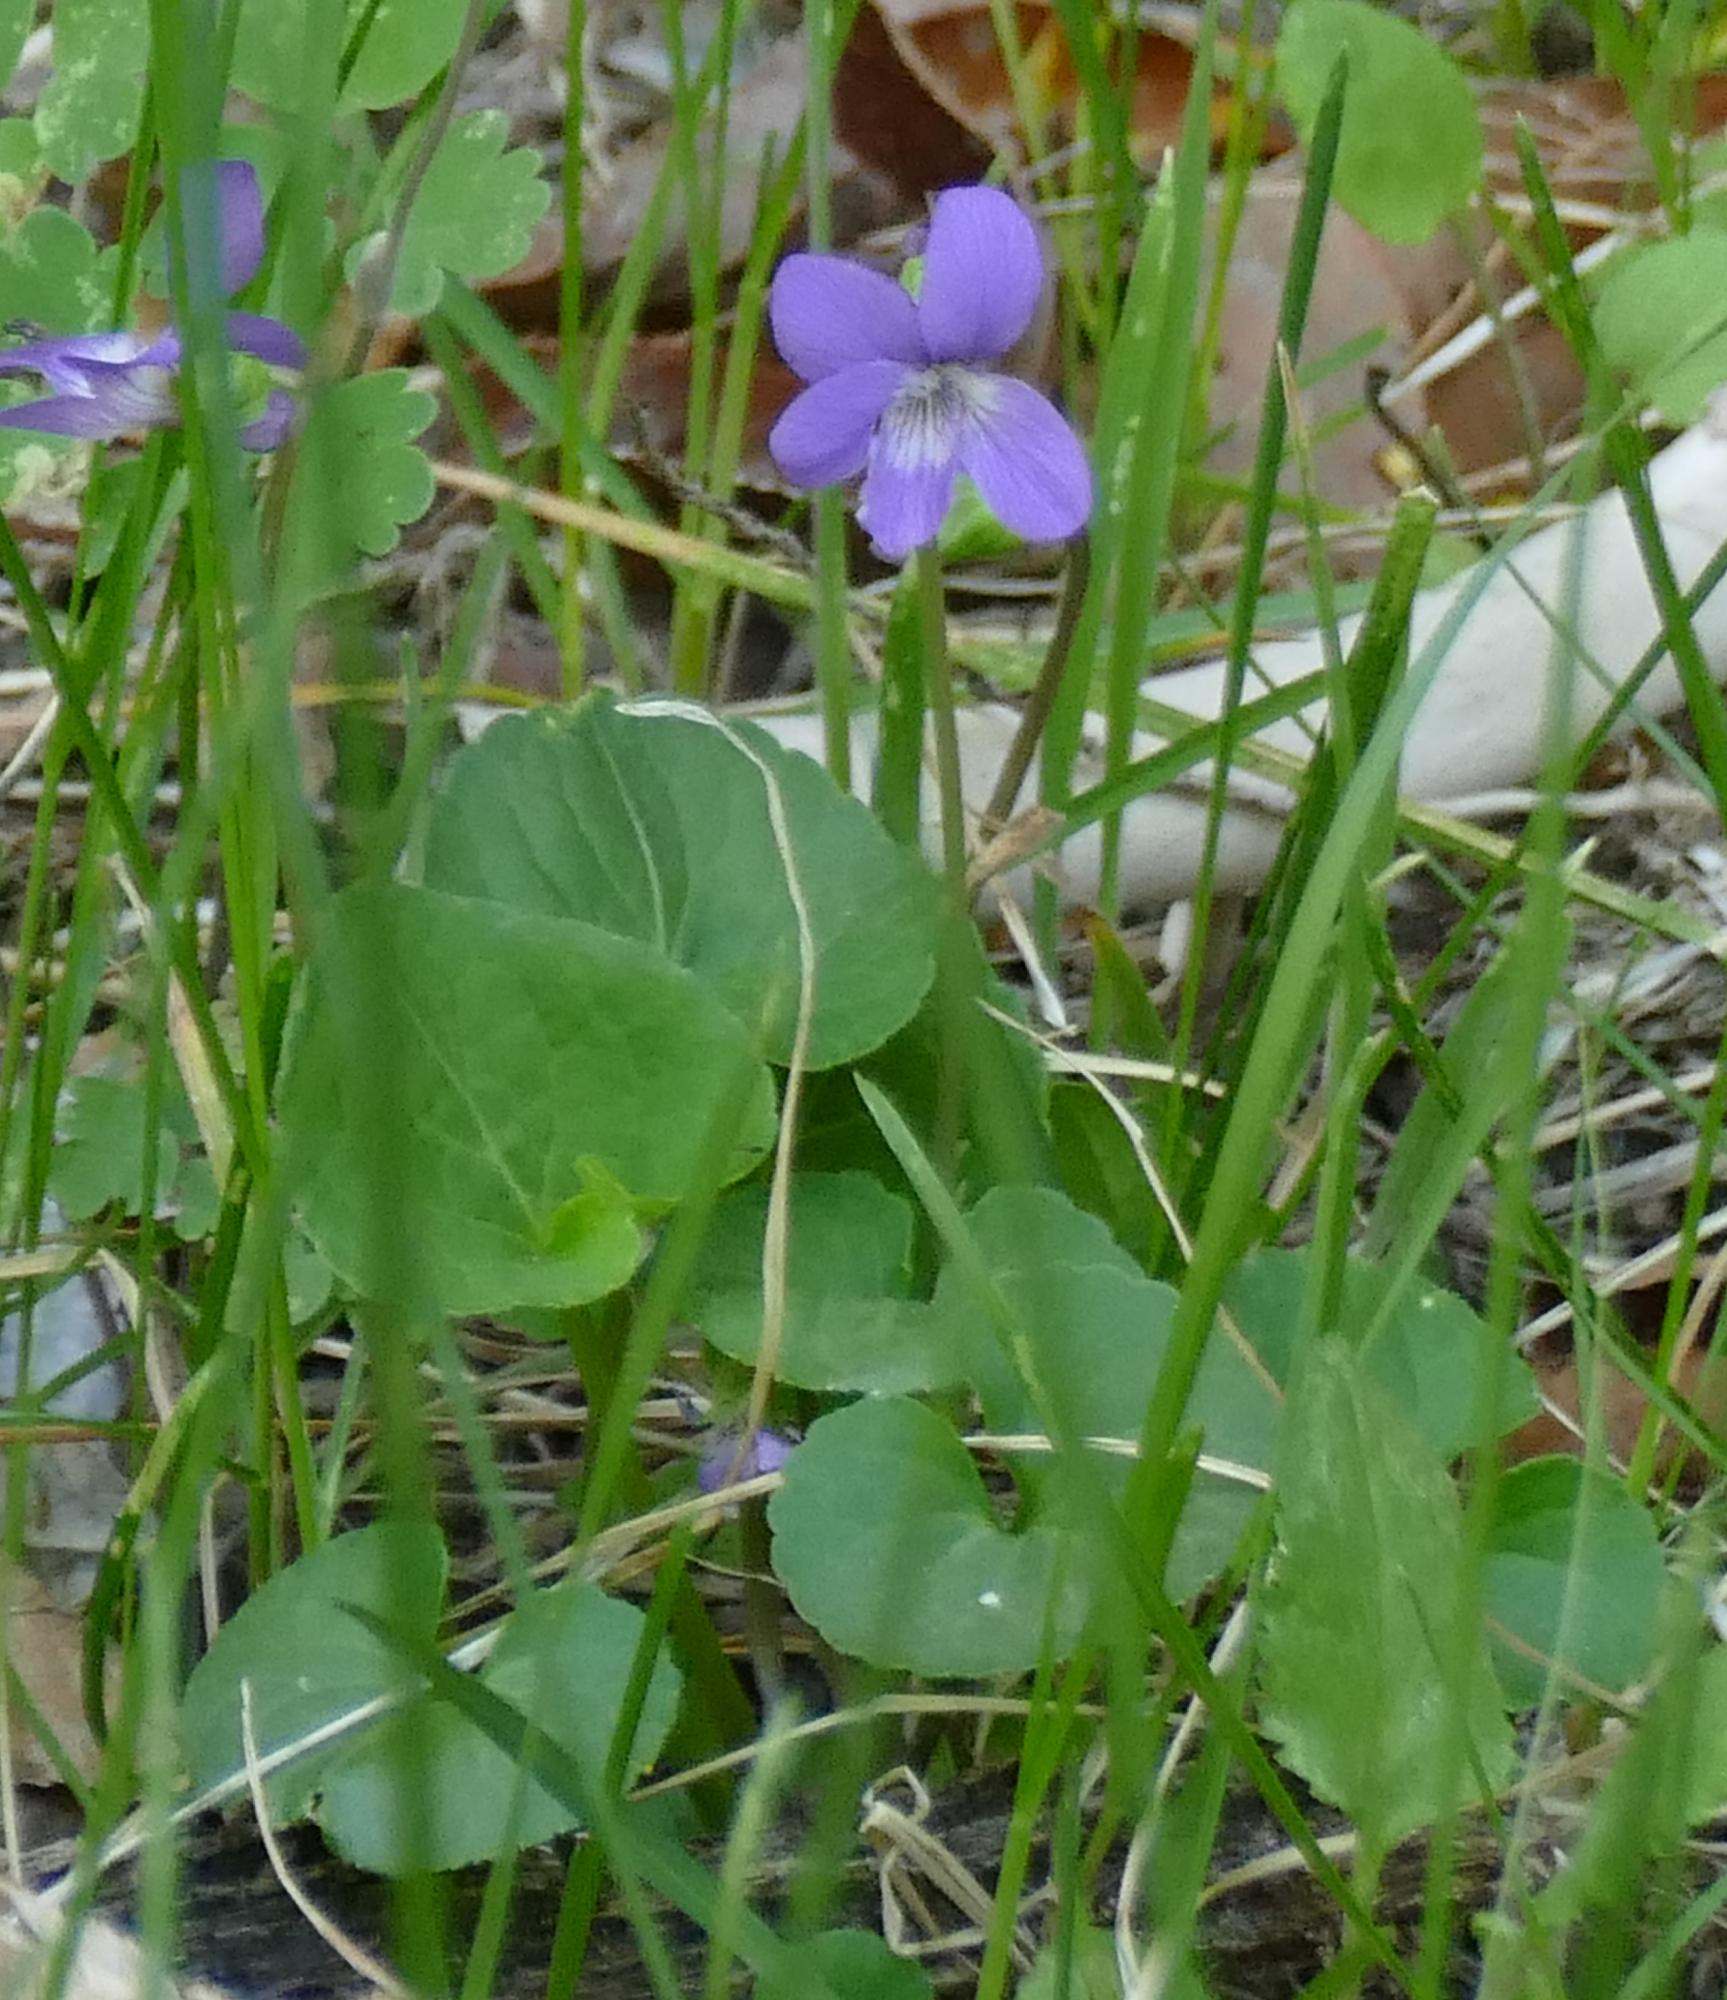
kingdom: Plantae
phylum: Tracheophyta
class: Magnoliopsida
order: Malpighiales
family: Violaceae
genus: Viola
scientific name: Viola nephrophylla
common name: Blue meadow violet
